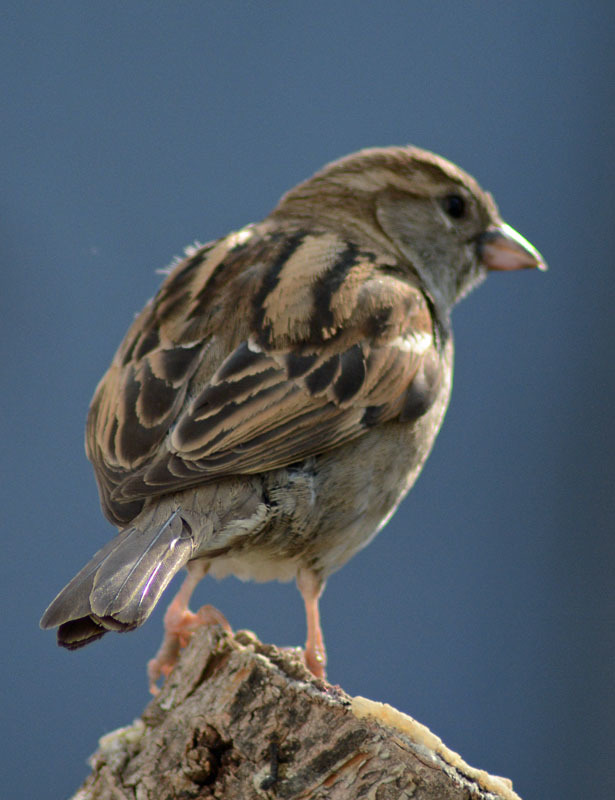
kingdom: Animalia
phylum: Chordata
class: Aves
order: Passeriformes
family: Passeridae
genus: Passer
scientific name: Passer domesticus
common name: House sparrow
